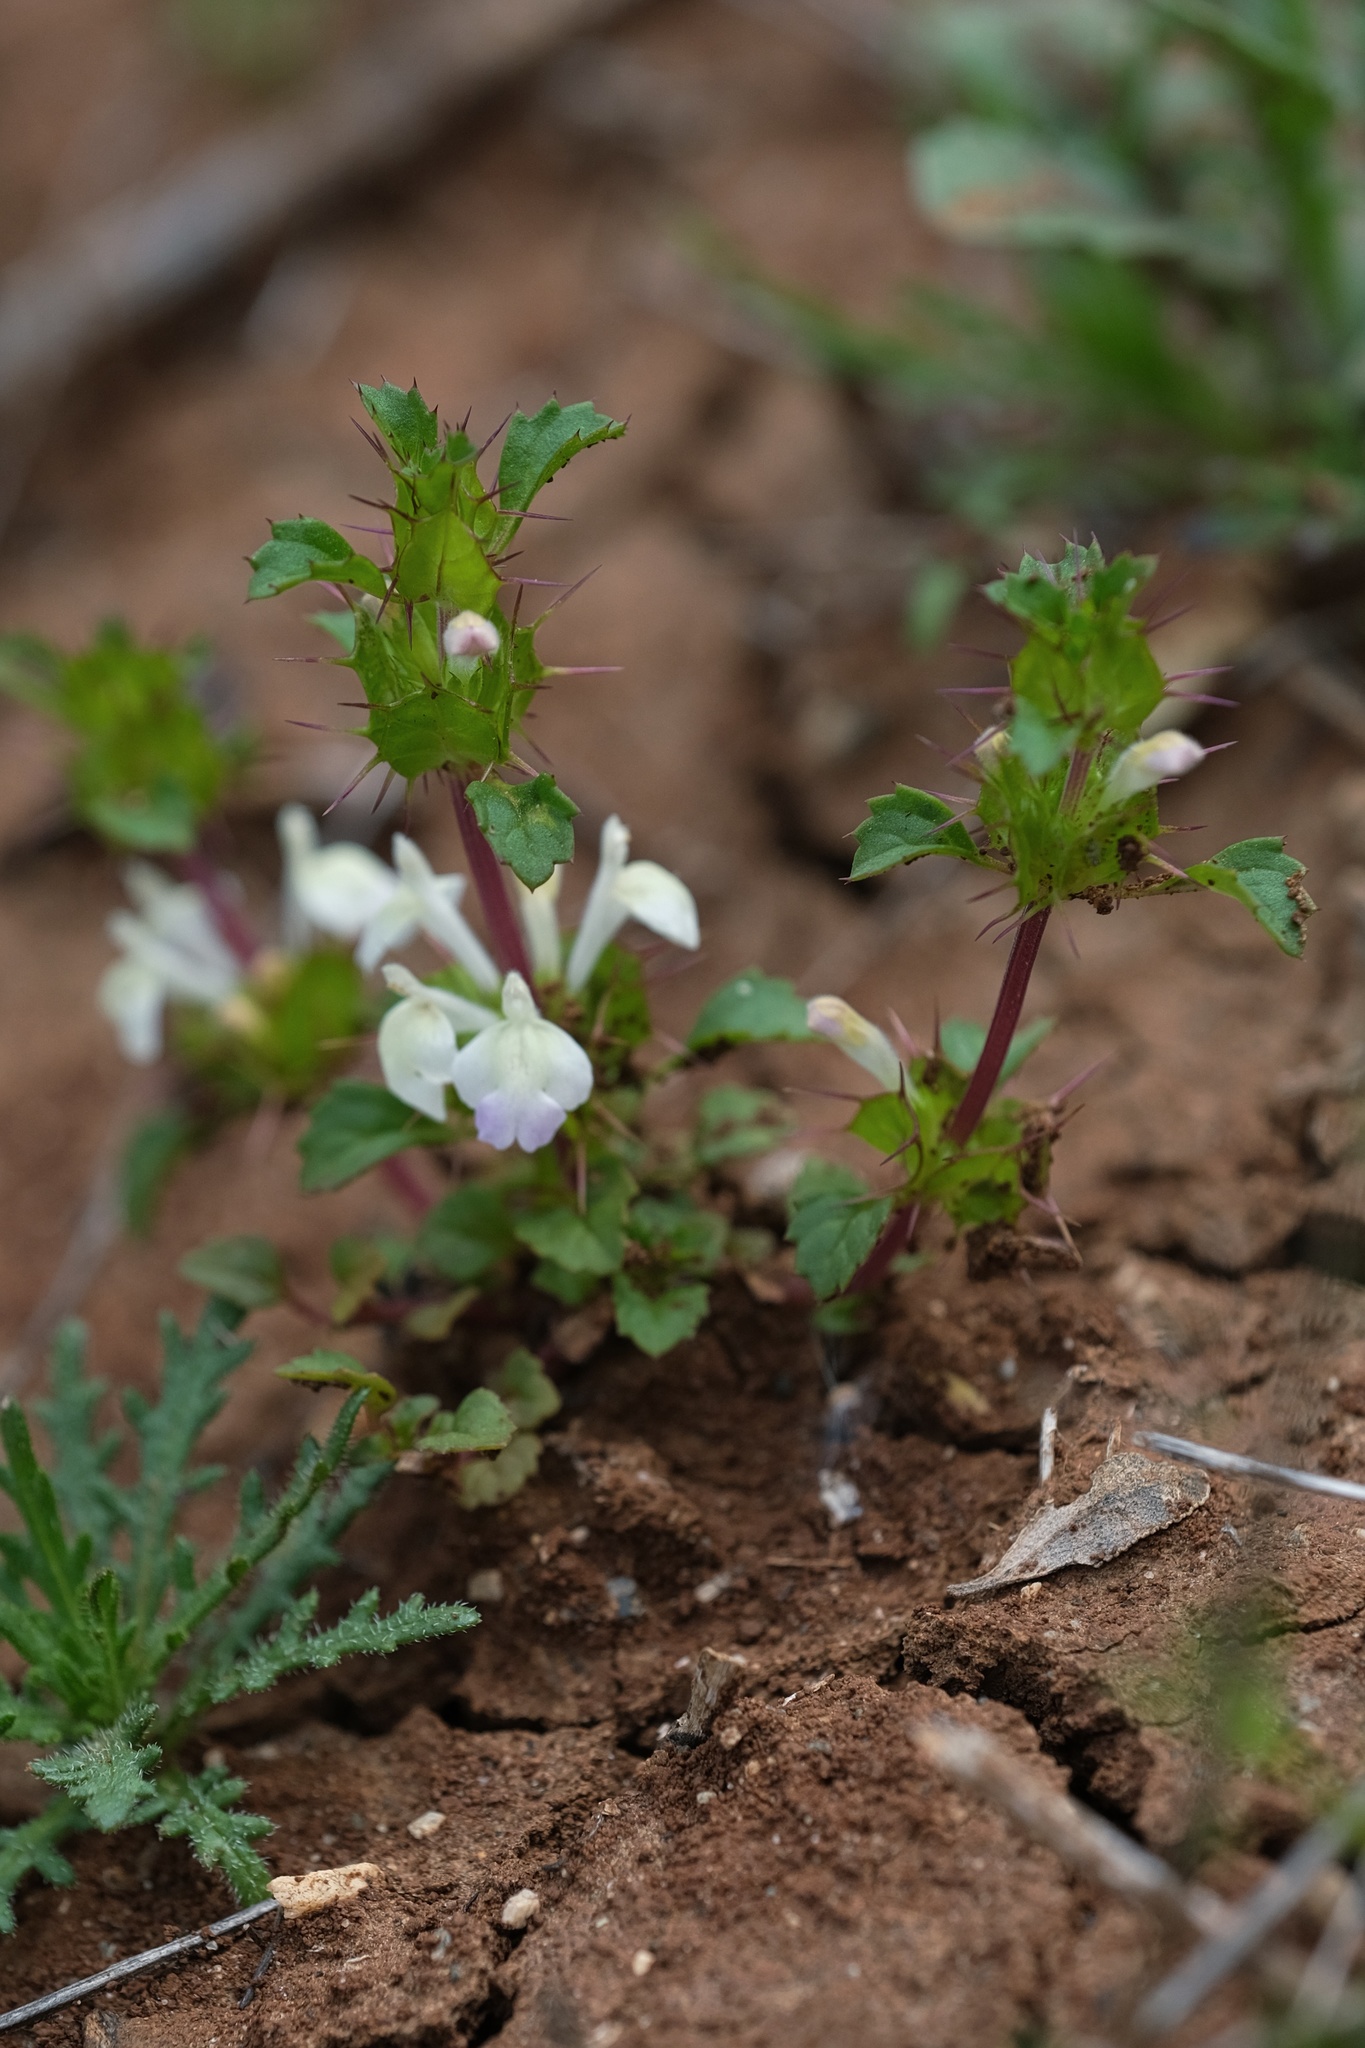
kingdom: Plantae
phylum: Tracheophyta
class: Magnoliopsida
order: Lamiales
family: Lamiaceae
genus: Acanthomintha
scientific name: Acanthomintha ilicifolia
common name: San diego thorn-mint
